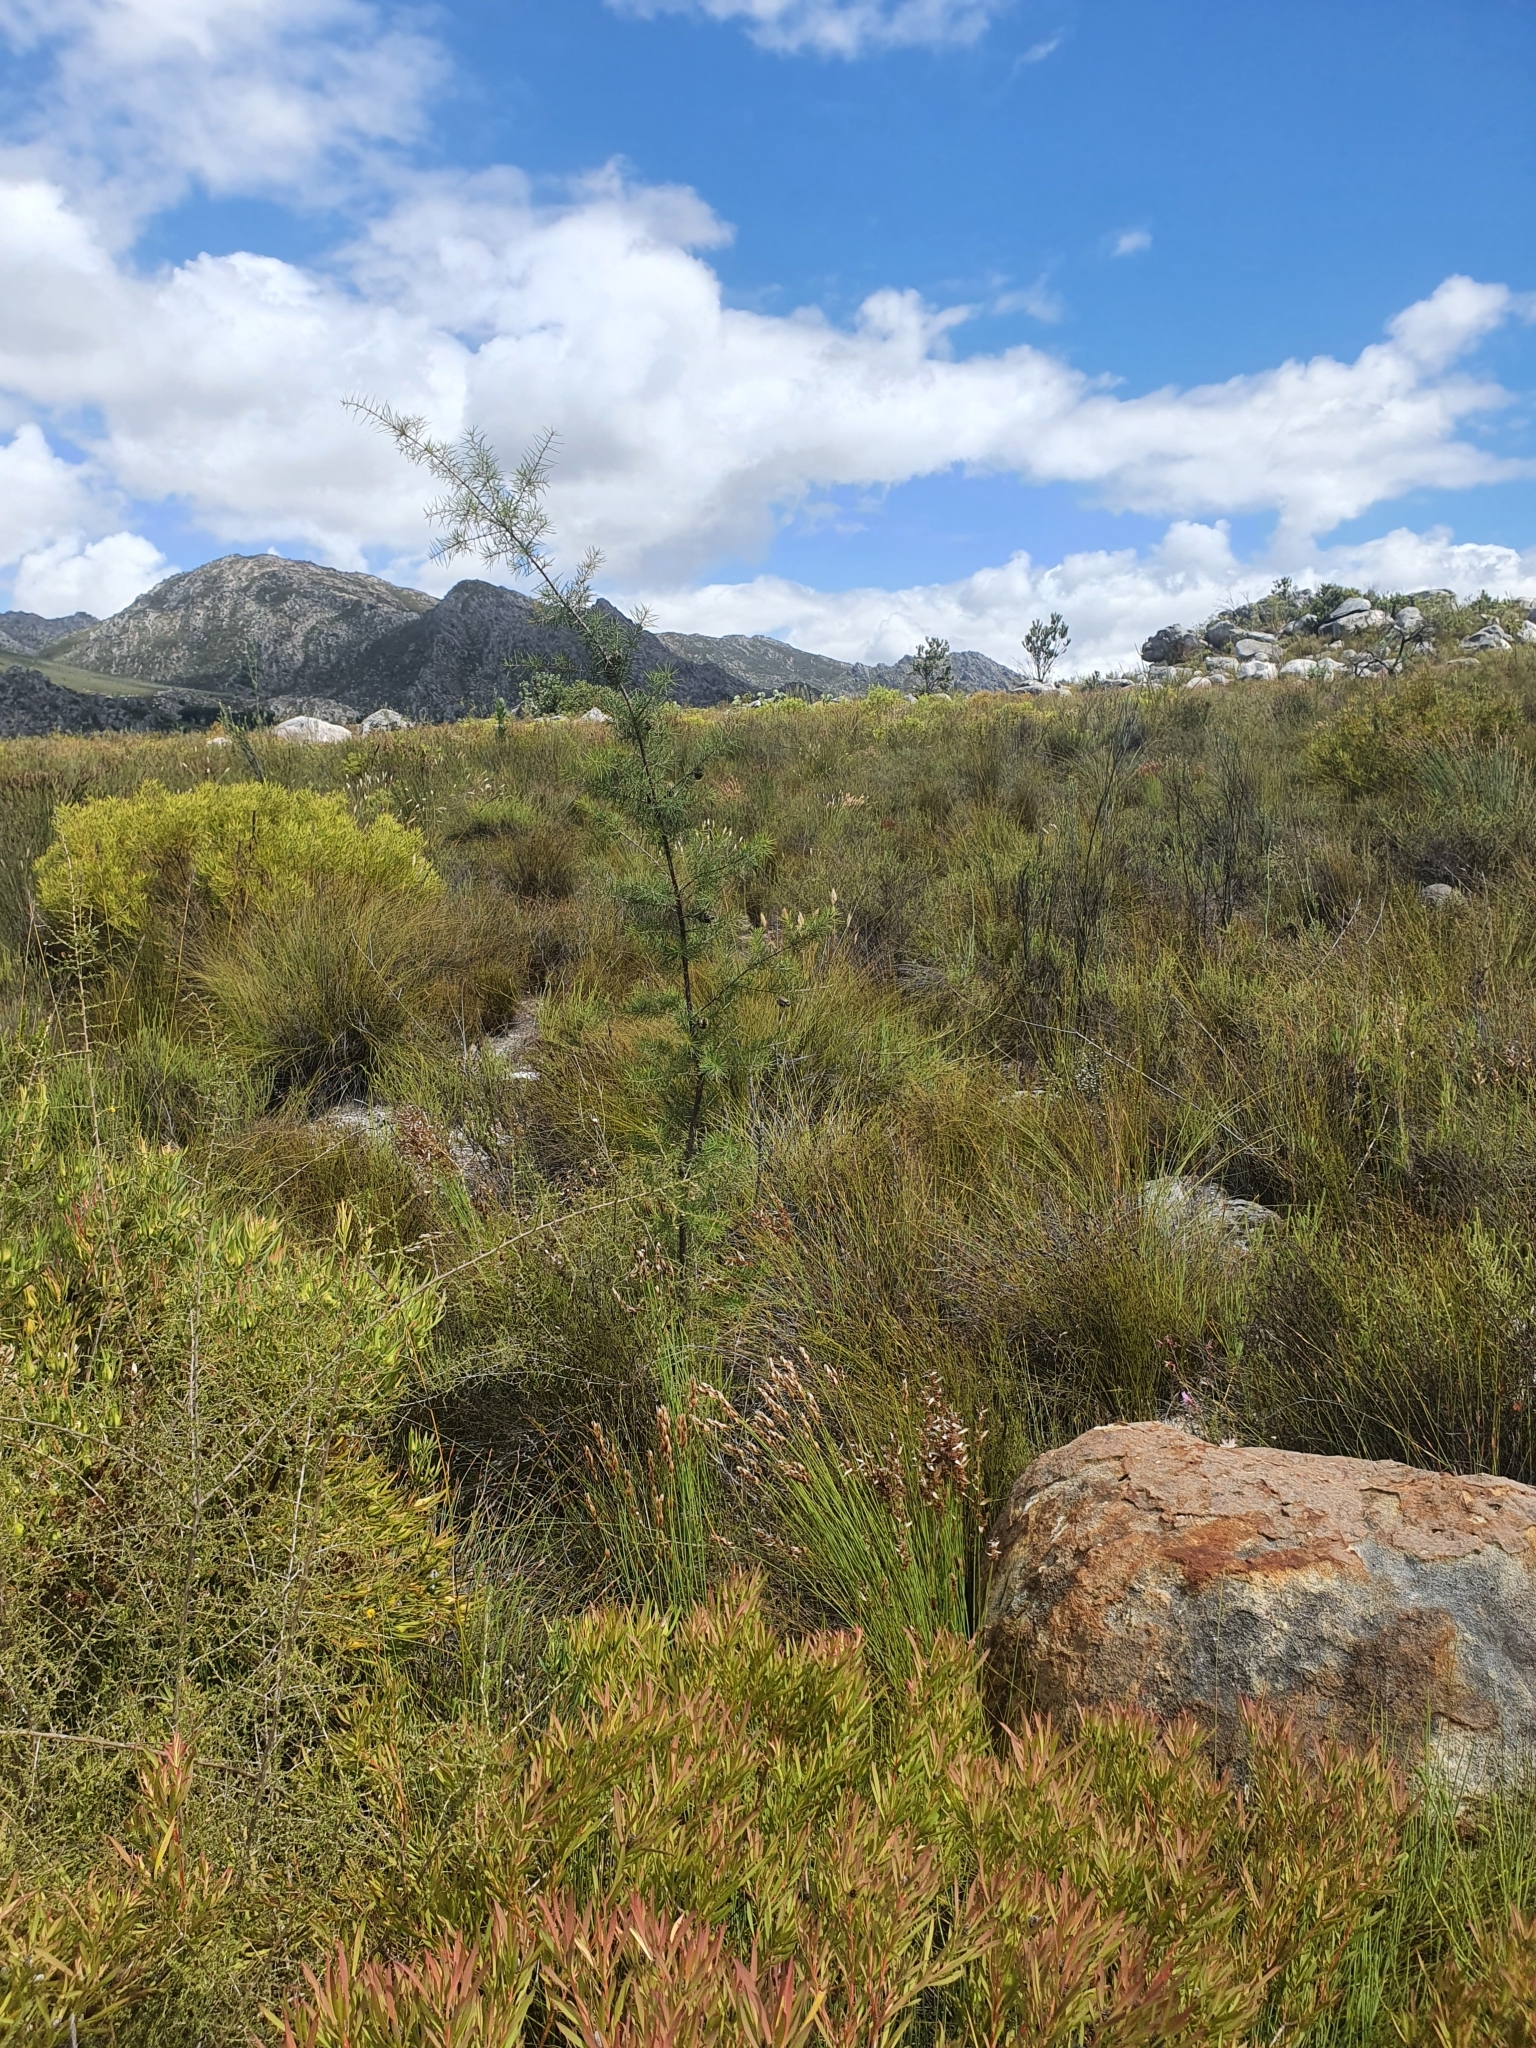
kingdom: Plantae
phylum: Tracheophyta
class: Magnoliopsida
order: Proteales
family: Proteaceae
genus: Hakea
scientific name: Hakea sericea
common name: Needle bush
